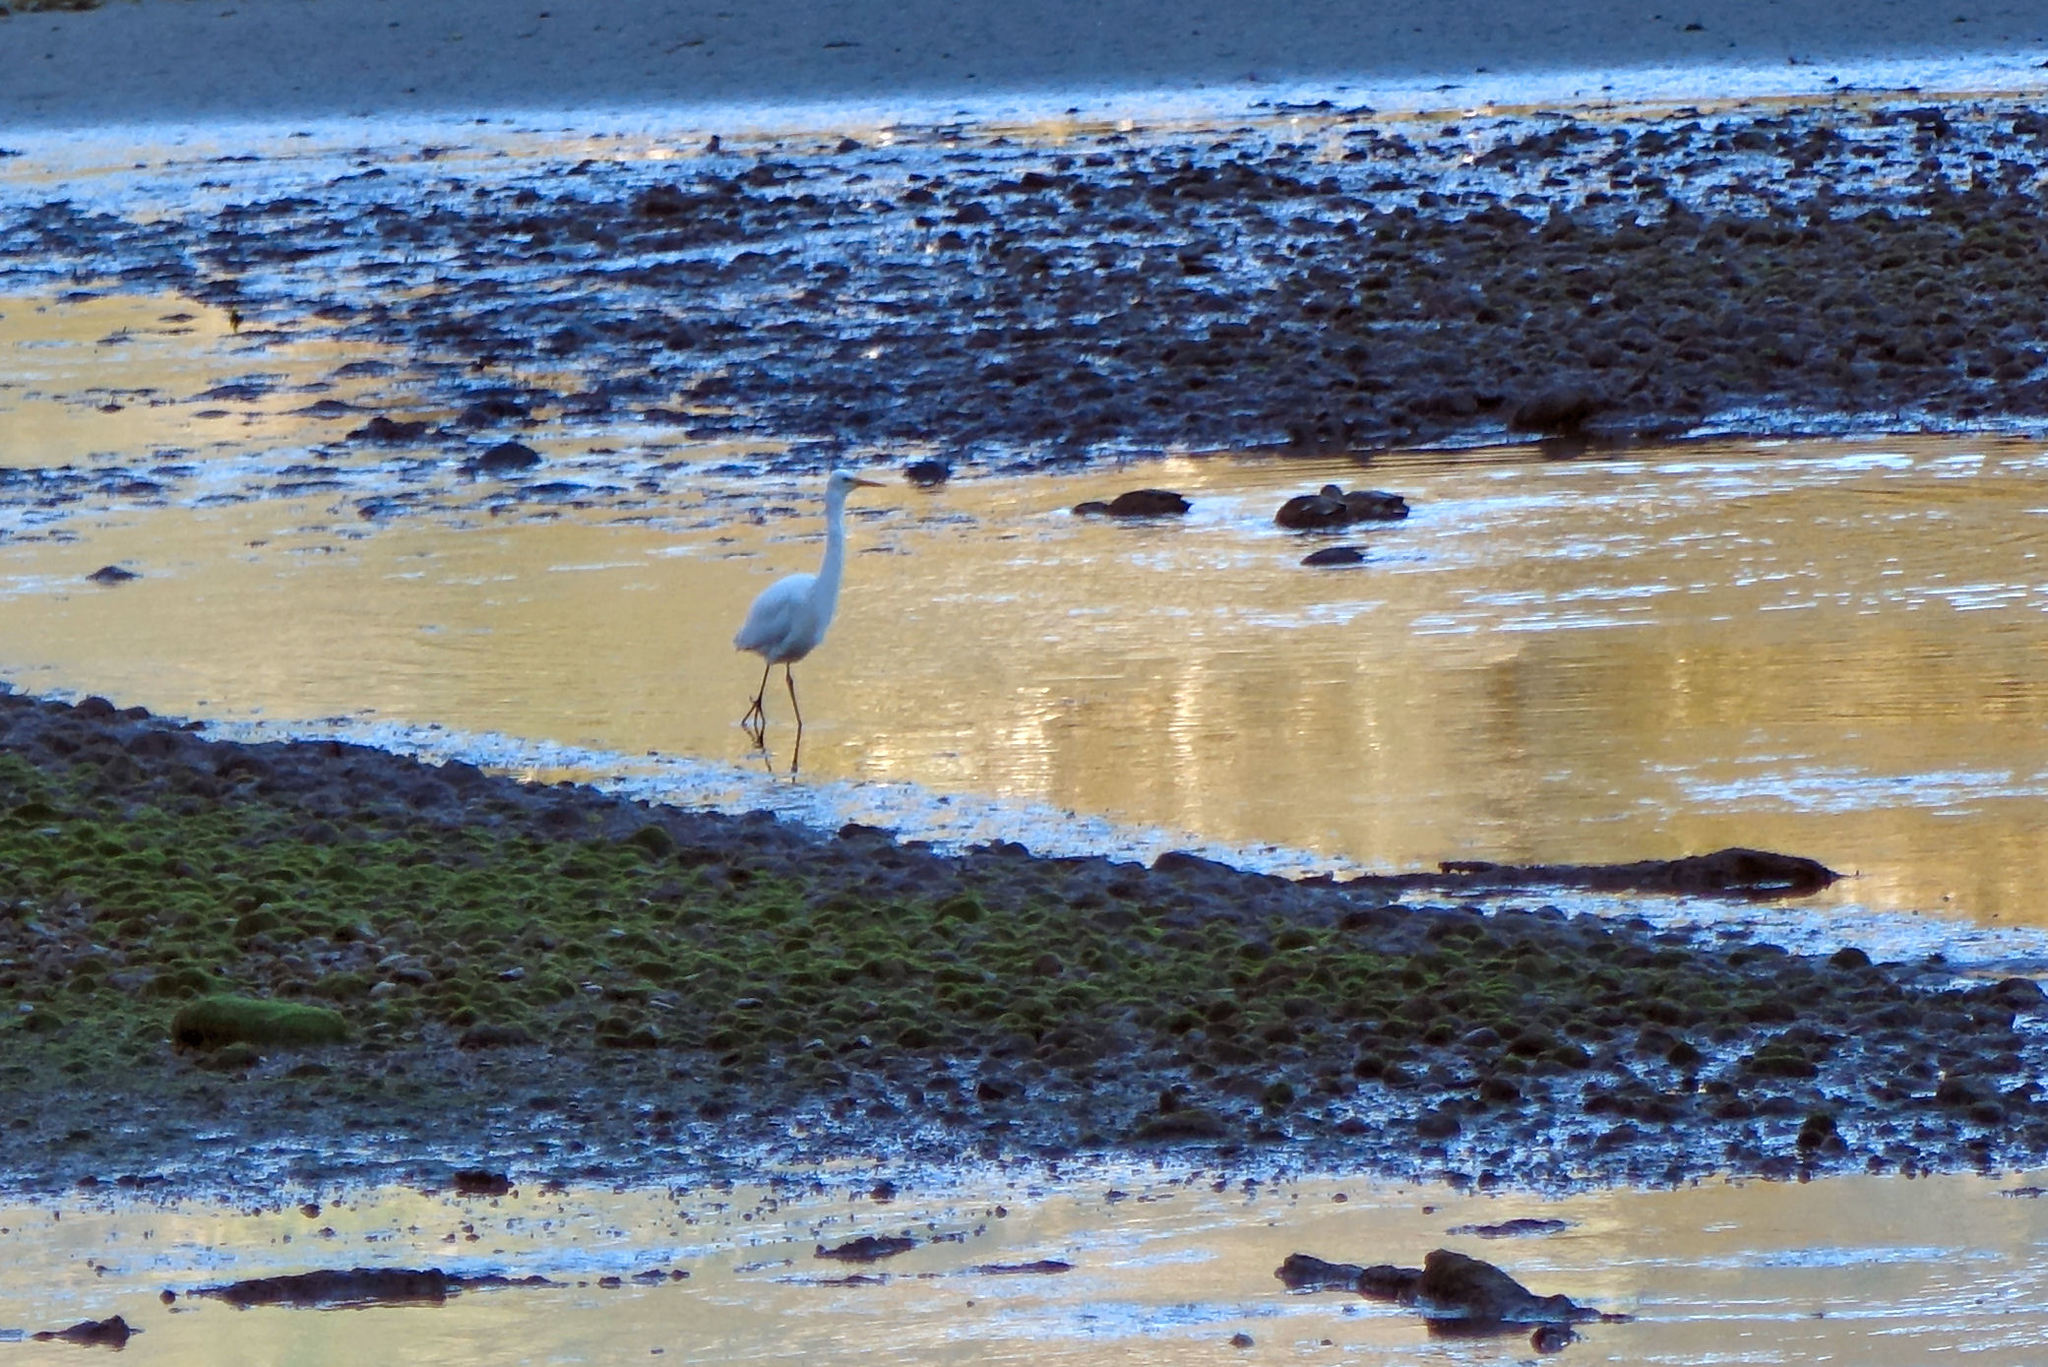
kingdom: Animalia
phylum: Chordata
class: Aves
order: Pelecaniformes
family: Ardeidae
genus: Ardea
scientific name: Ardea modesta
